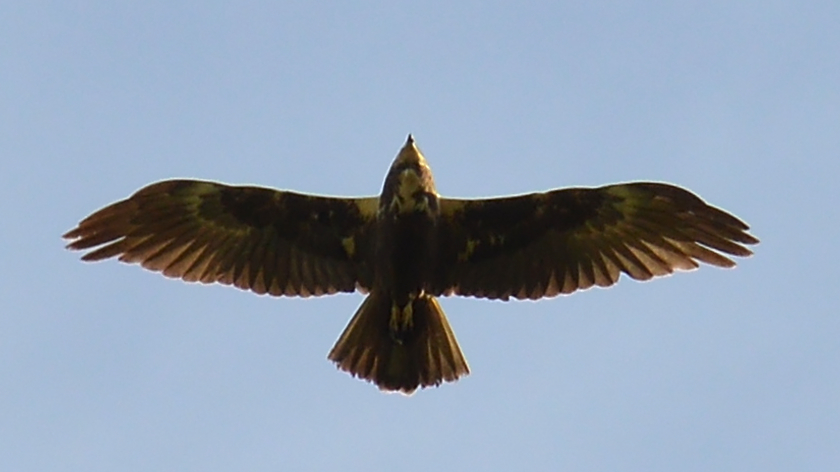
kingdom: Animalia
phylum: Chordata
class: Aves
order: Accipitriformes
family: Accipitridae
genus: Circus
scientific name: Circus aeruginosus
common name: Western marsh harrier
